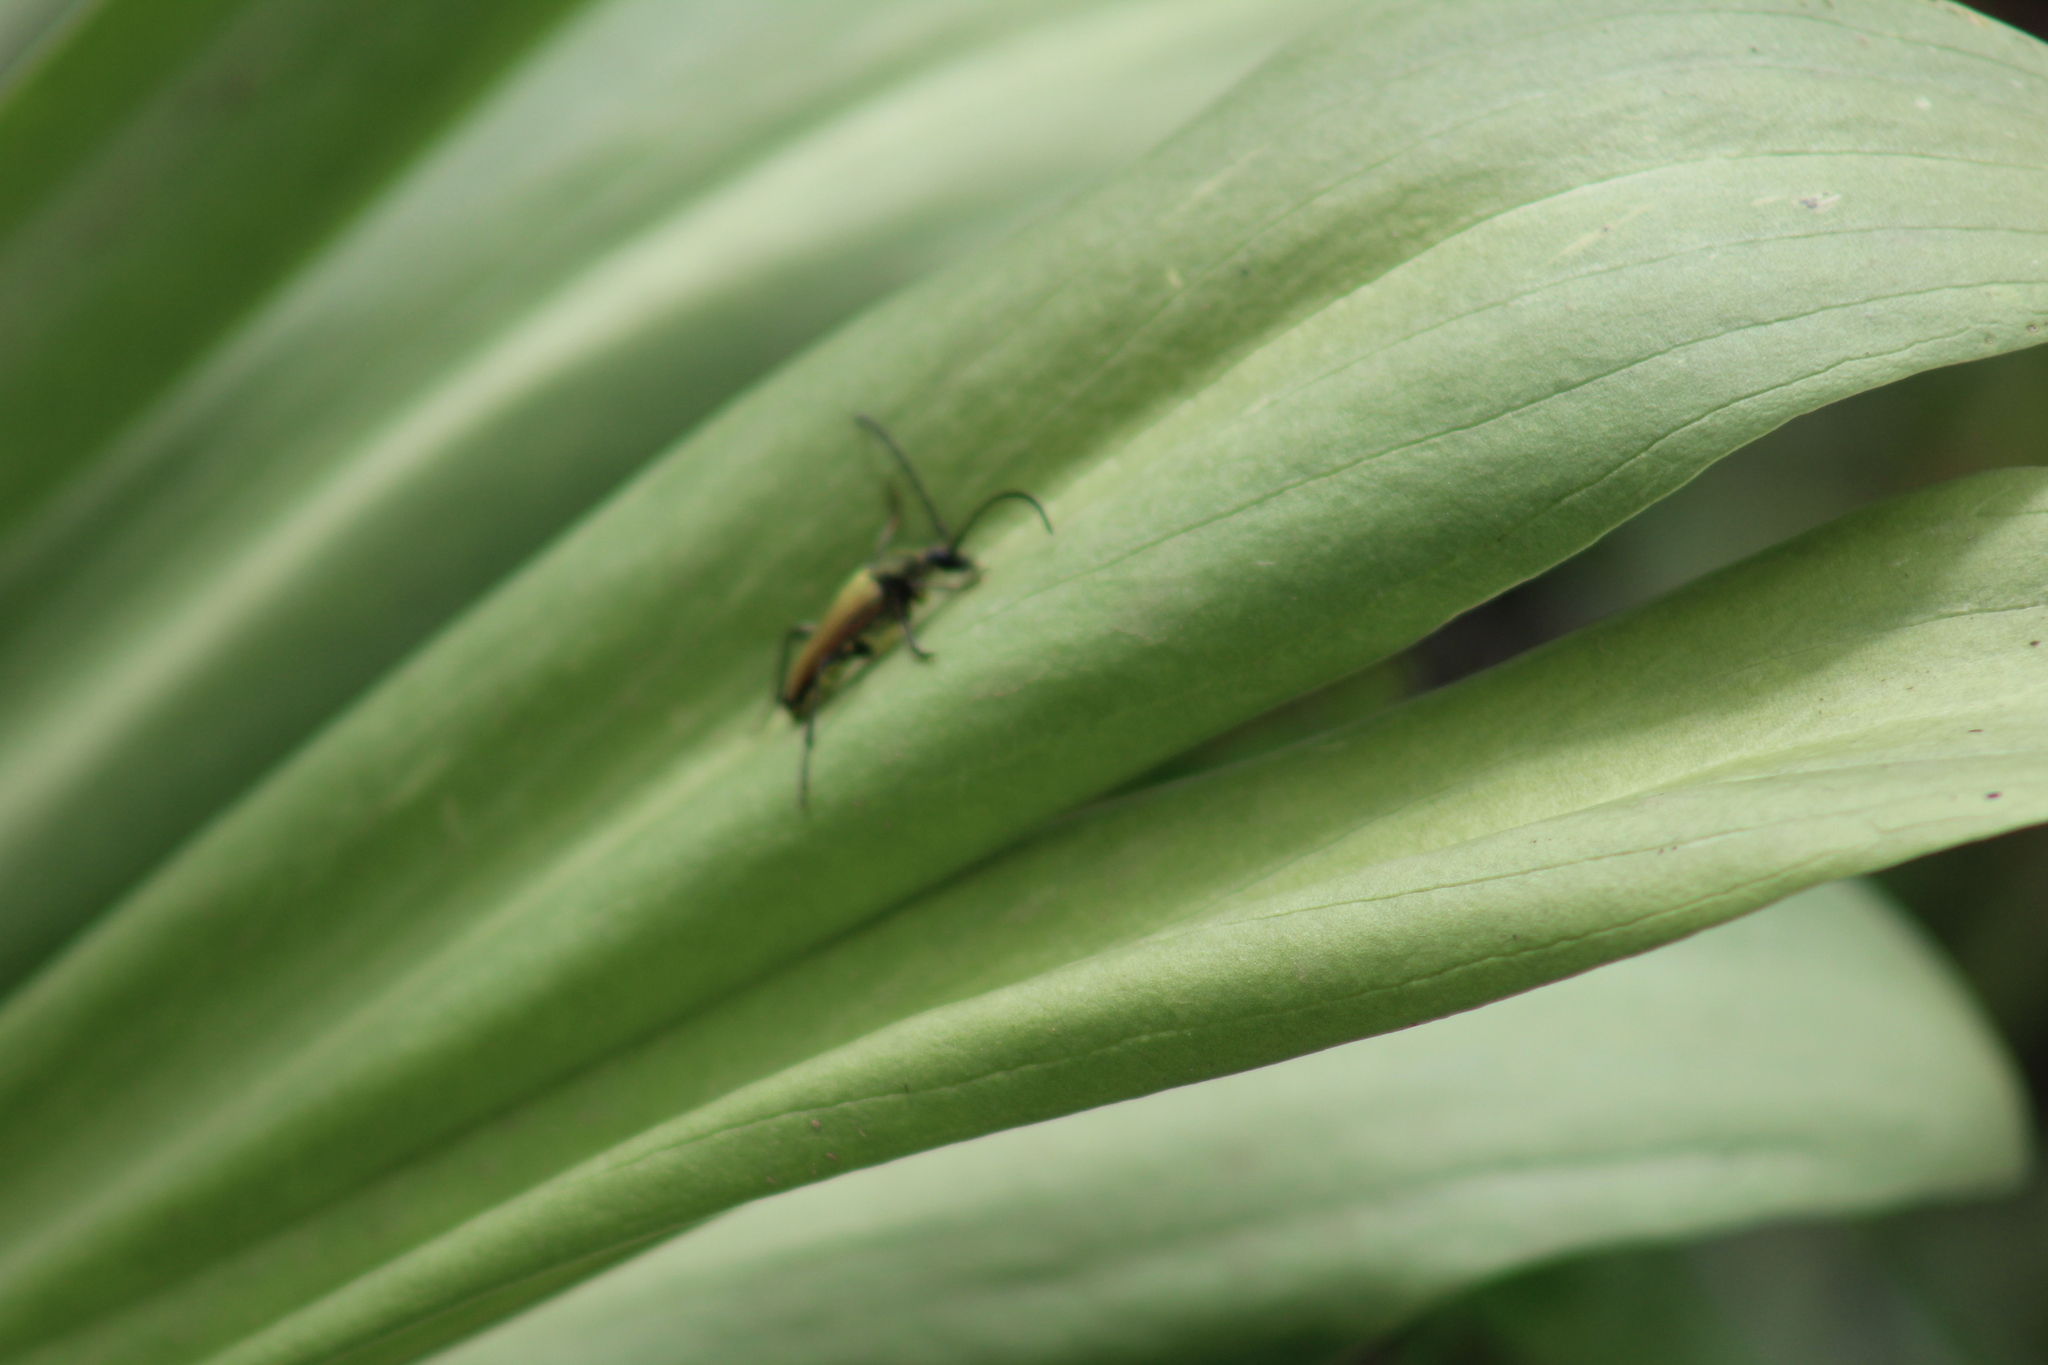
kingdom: Animalia
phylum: Arthropoda
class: Insecta
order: Coleoptera
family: Cerambycidae
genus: Cosmosalia
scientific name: Cosmosalia chrysocoma
